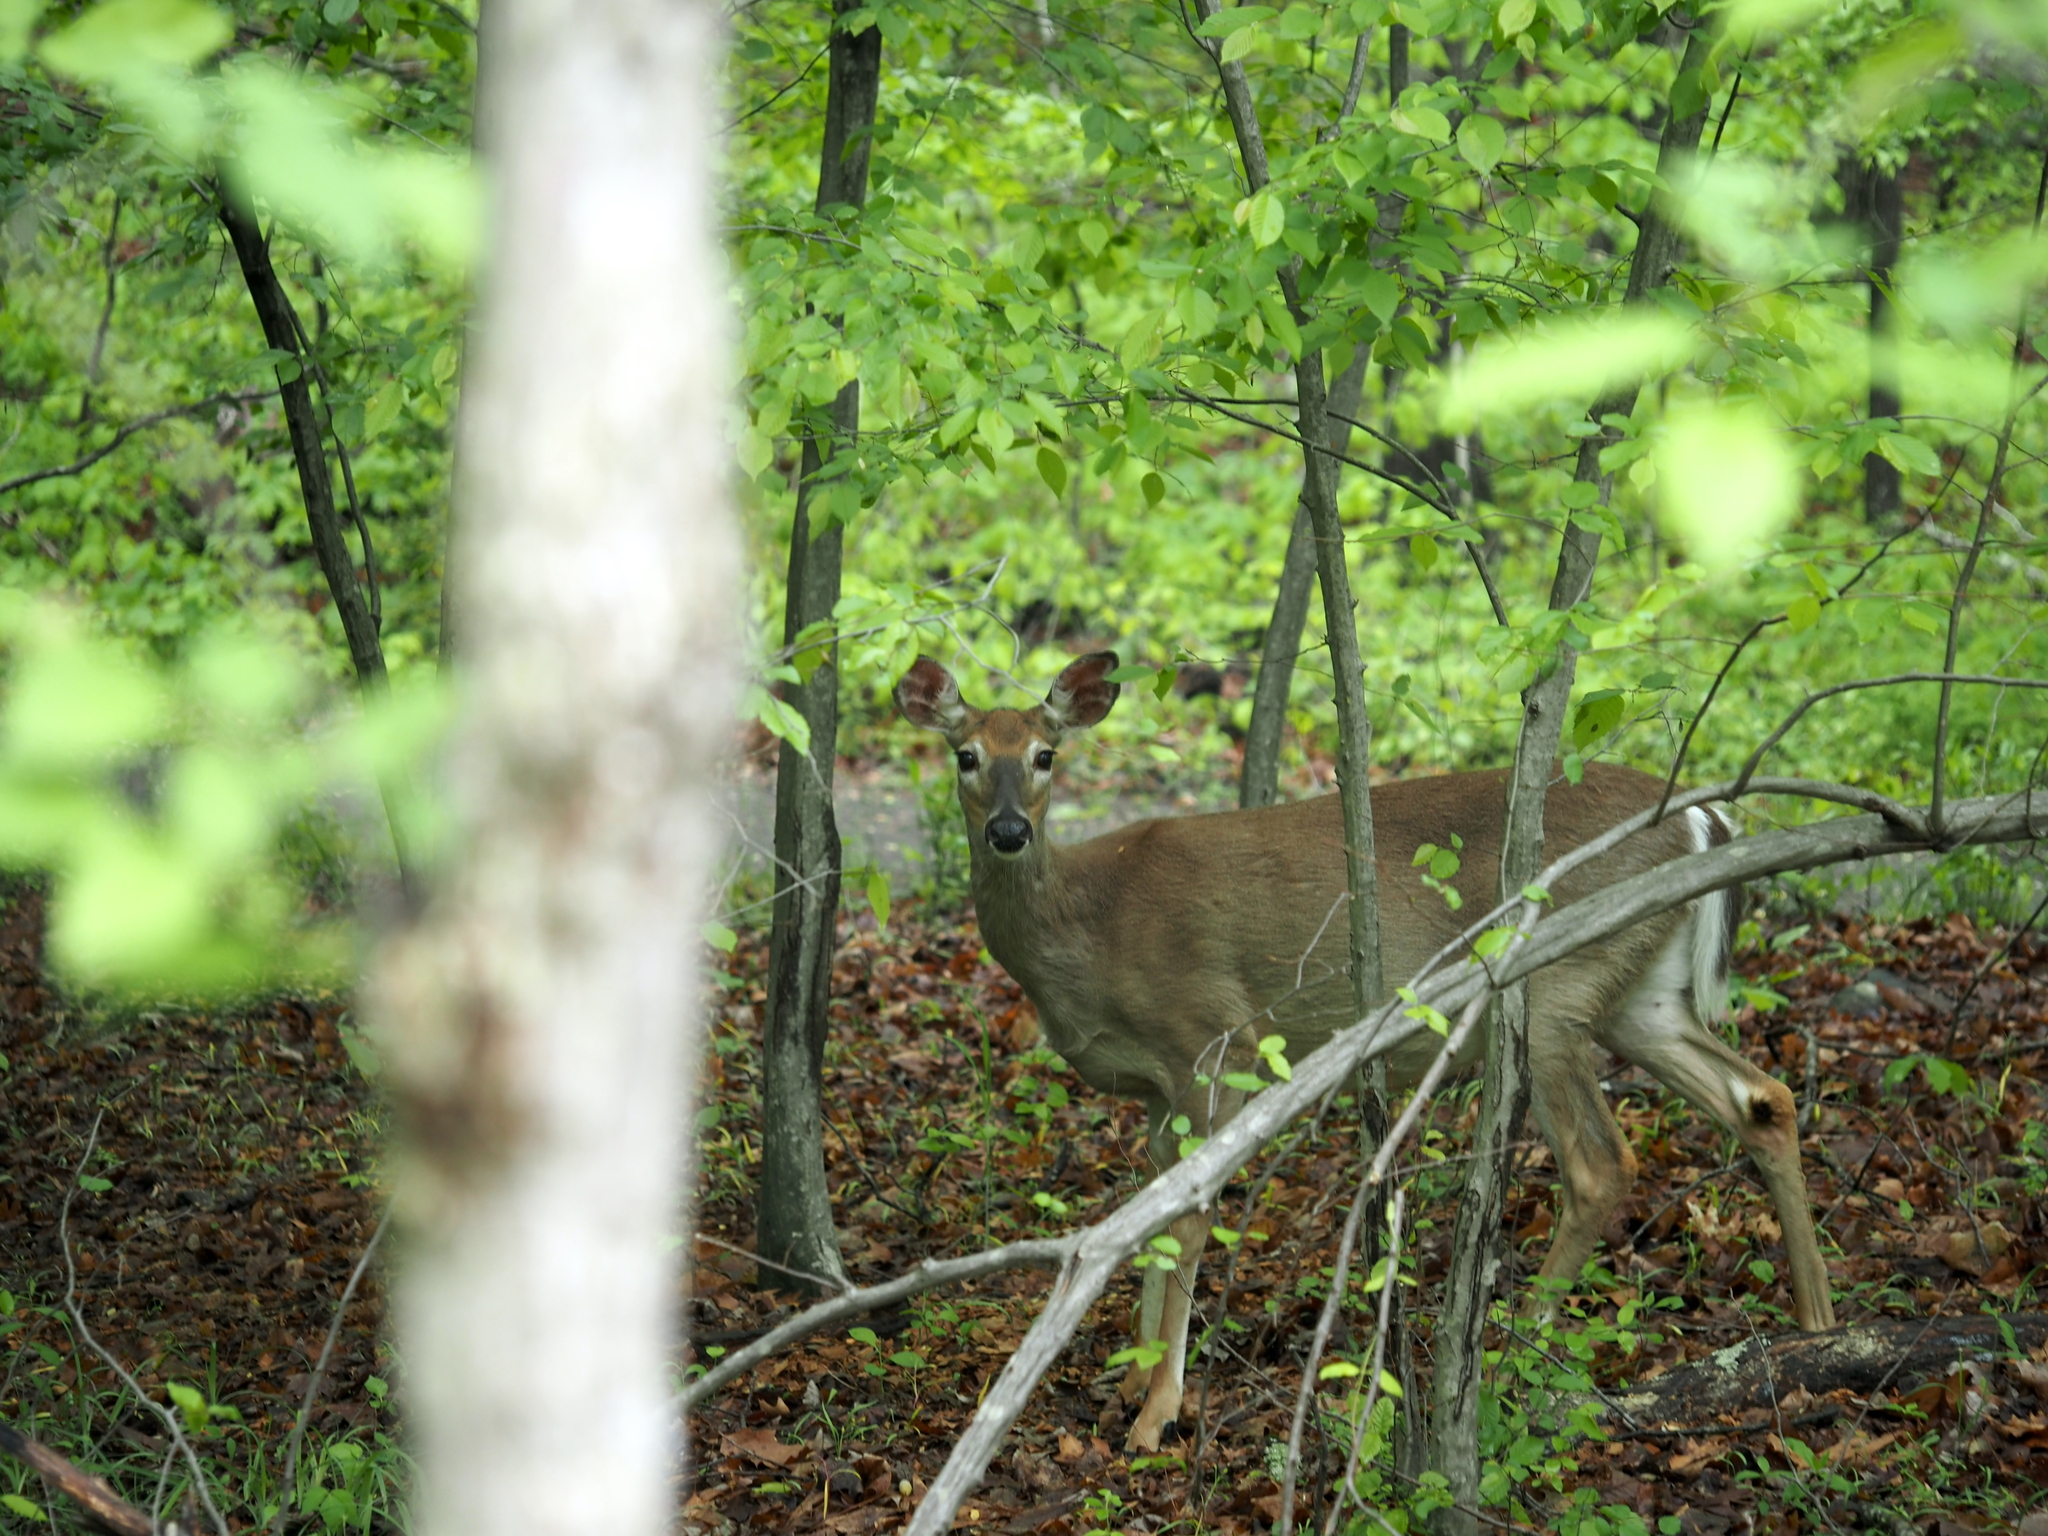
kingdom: Animalia
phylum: Chordata
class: Mammalia
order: Artiodactyla
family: Cervidae
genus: Odocoileus
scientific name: Odocoileus virginianus
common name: White-tailed deer
